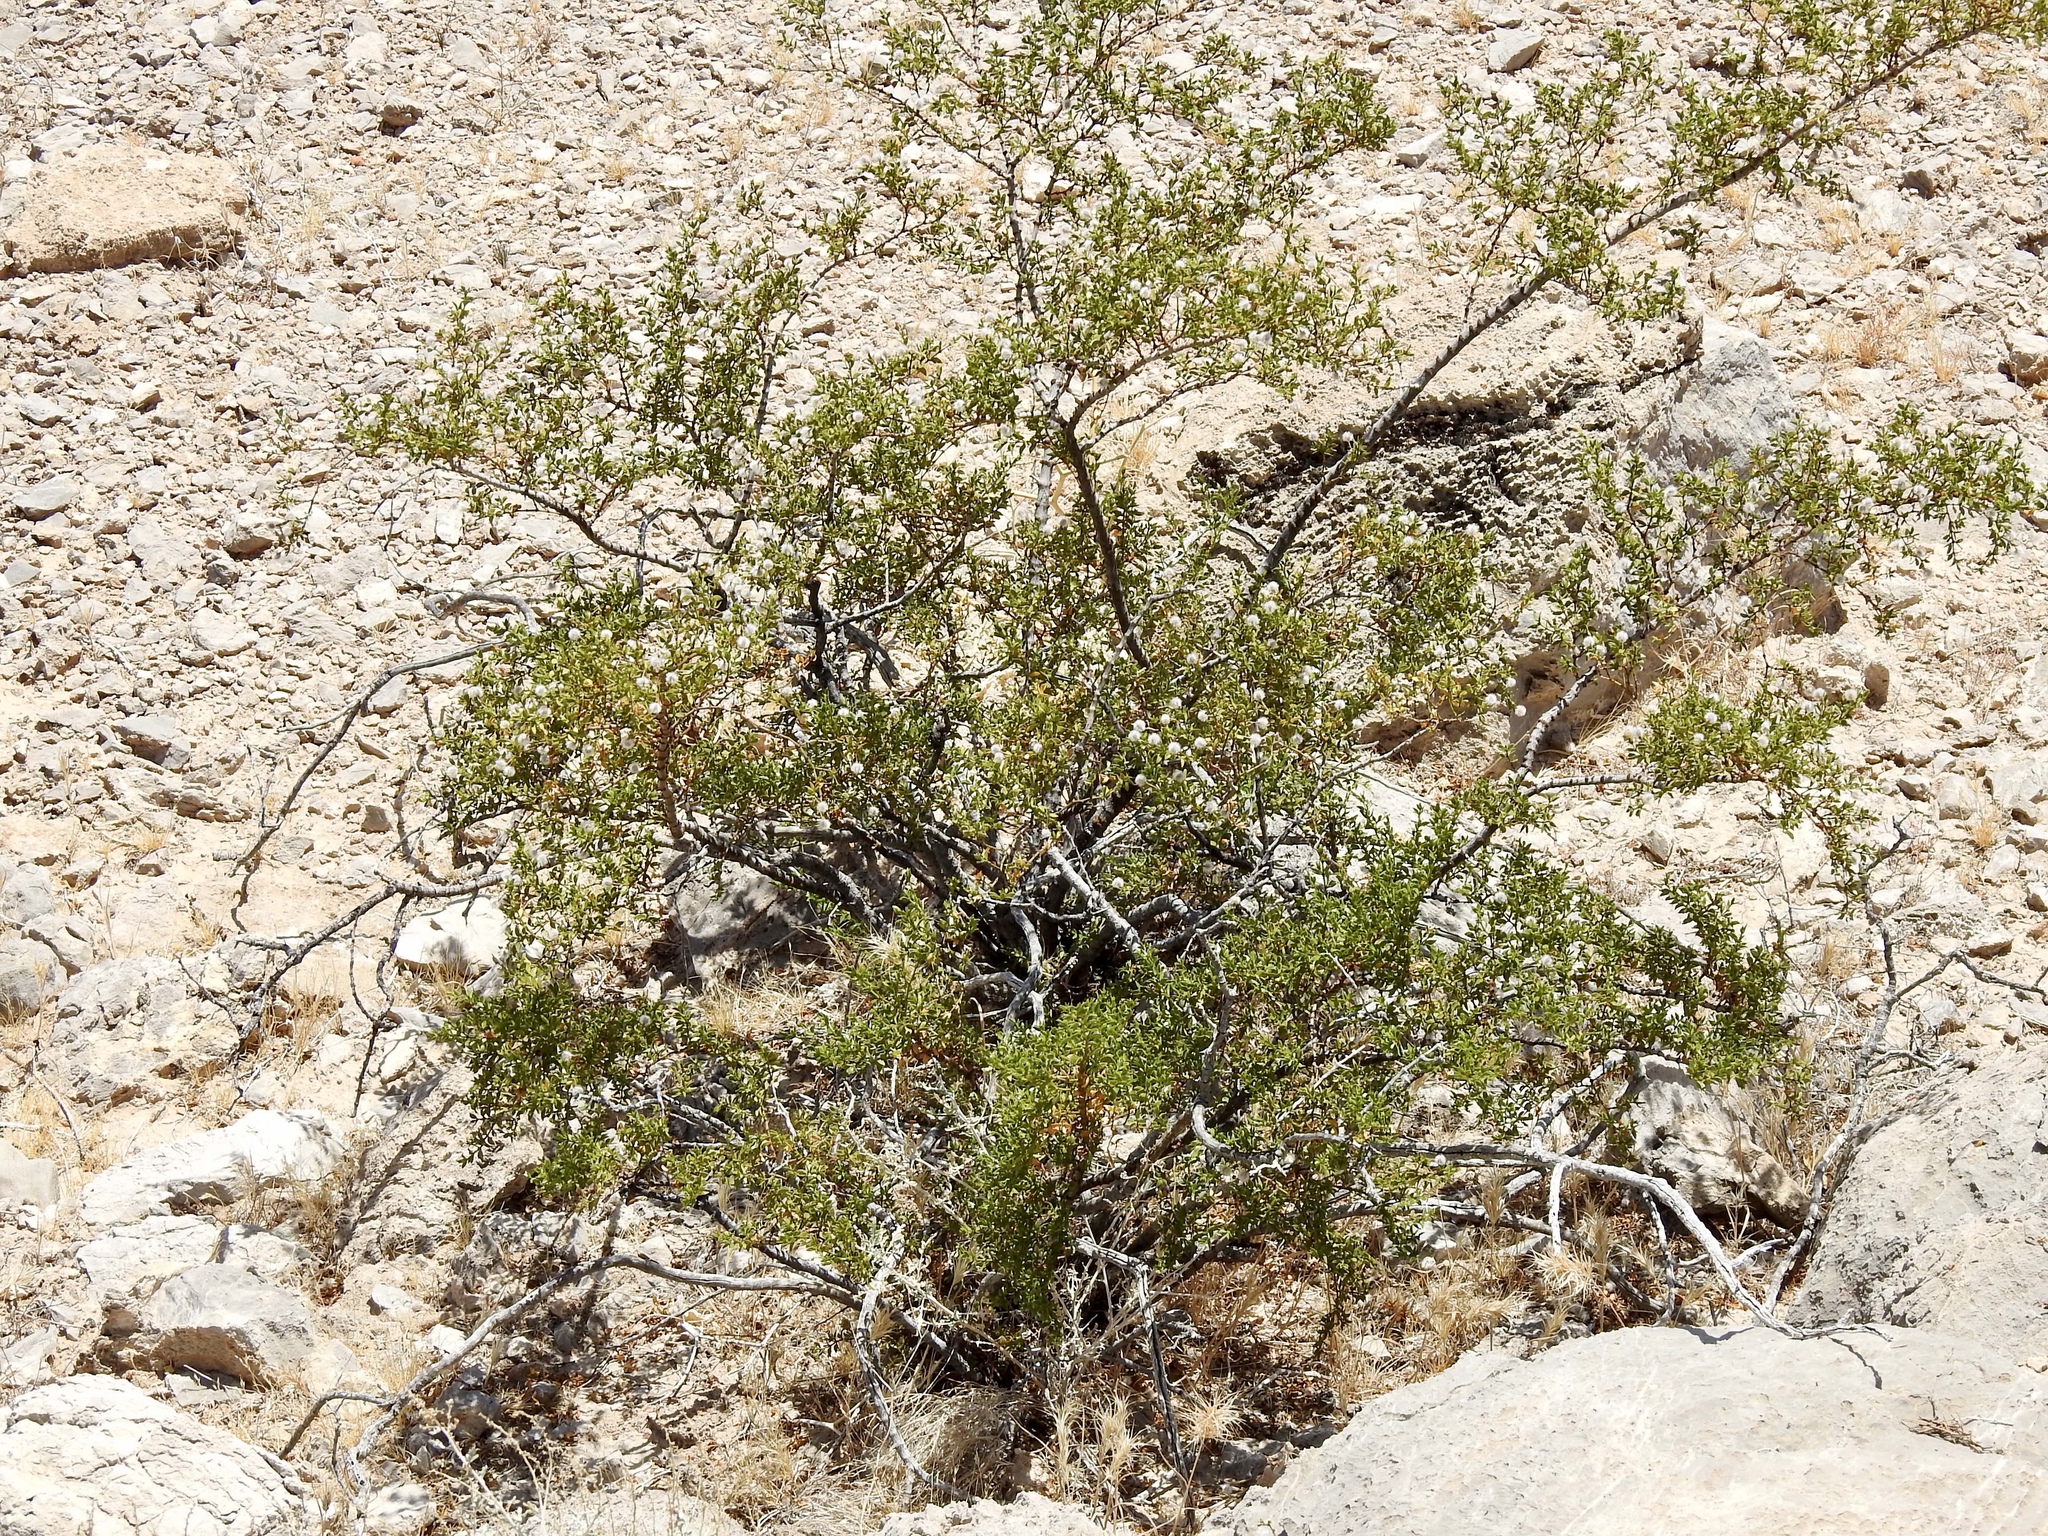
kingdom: Plantae
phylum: Tracheophyta
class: Magnoliopsida
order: Zygophyllales
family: Zygophyllaceae
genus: Larrea
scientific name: Larrea tridentata
